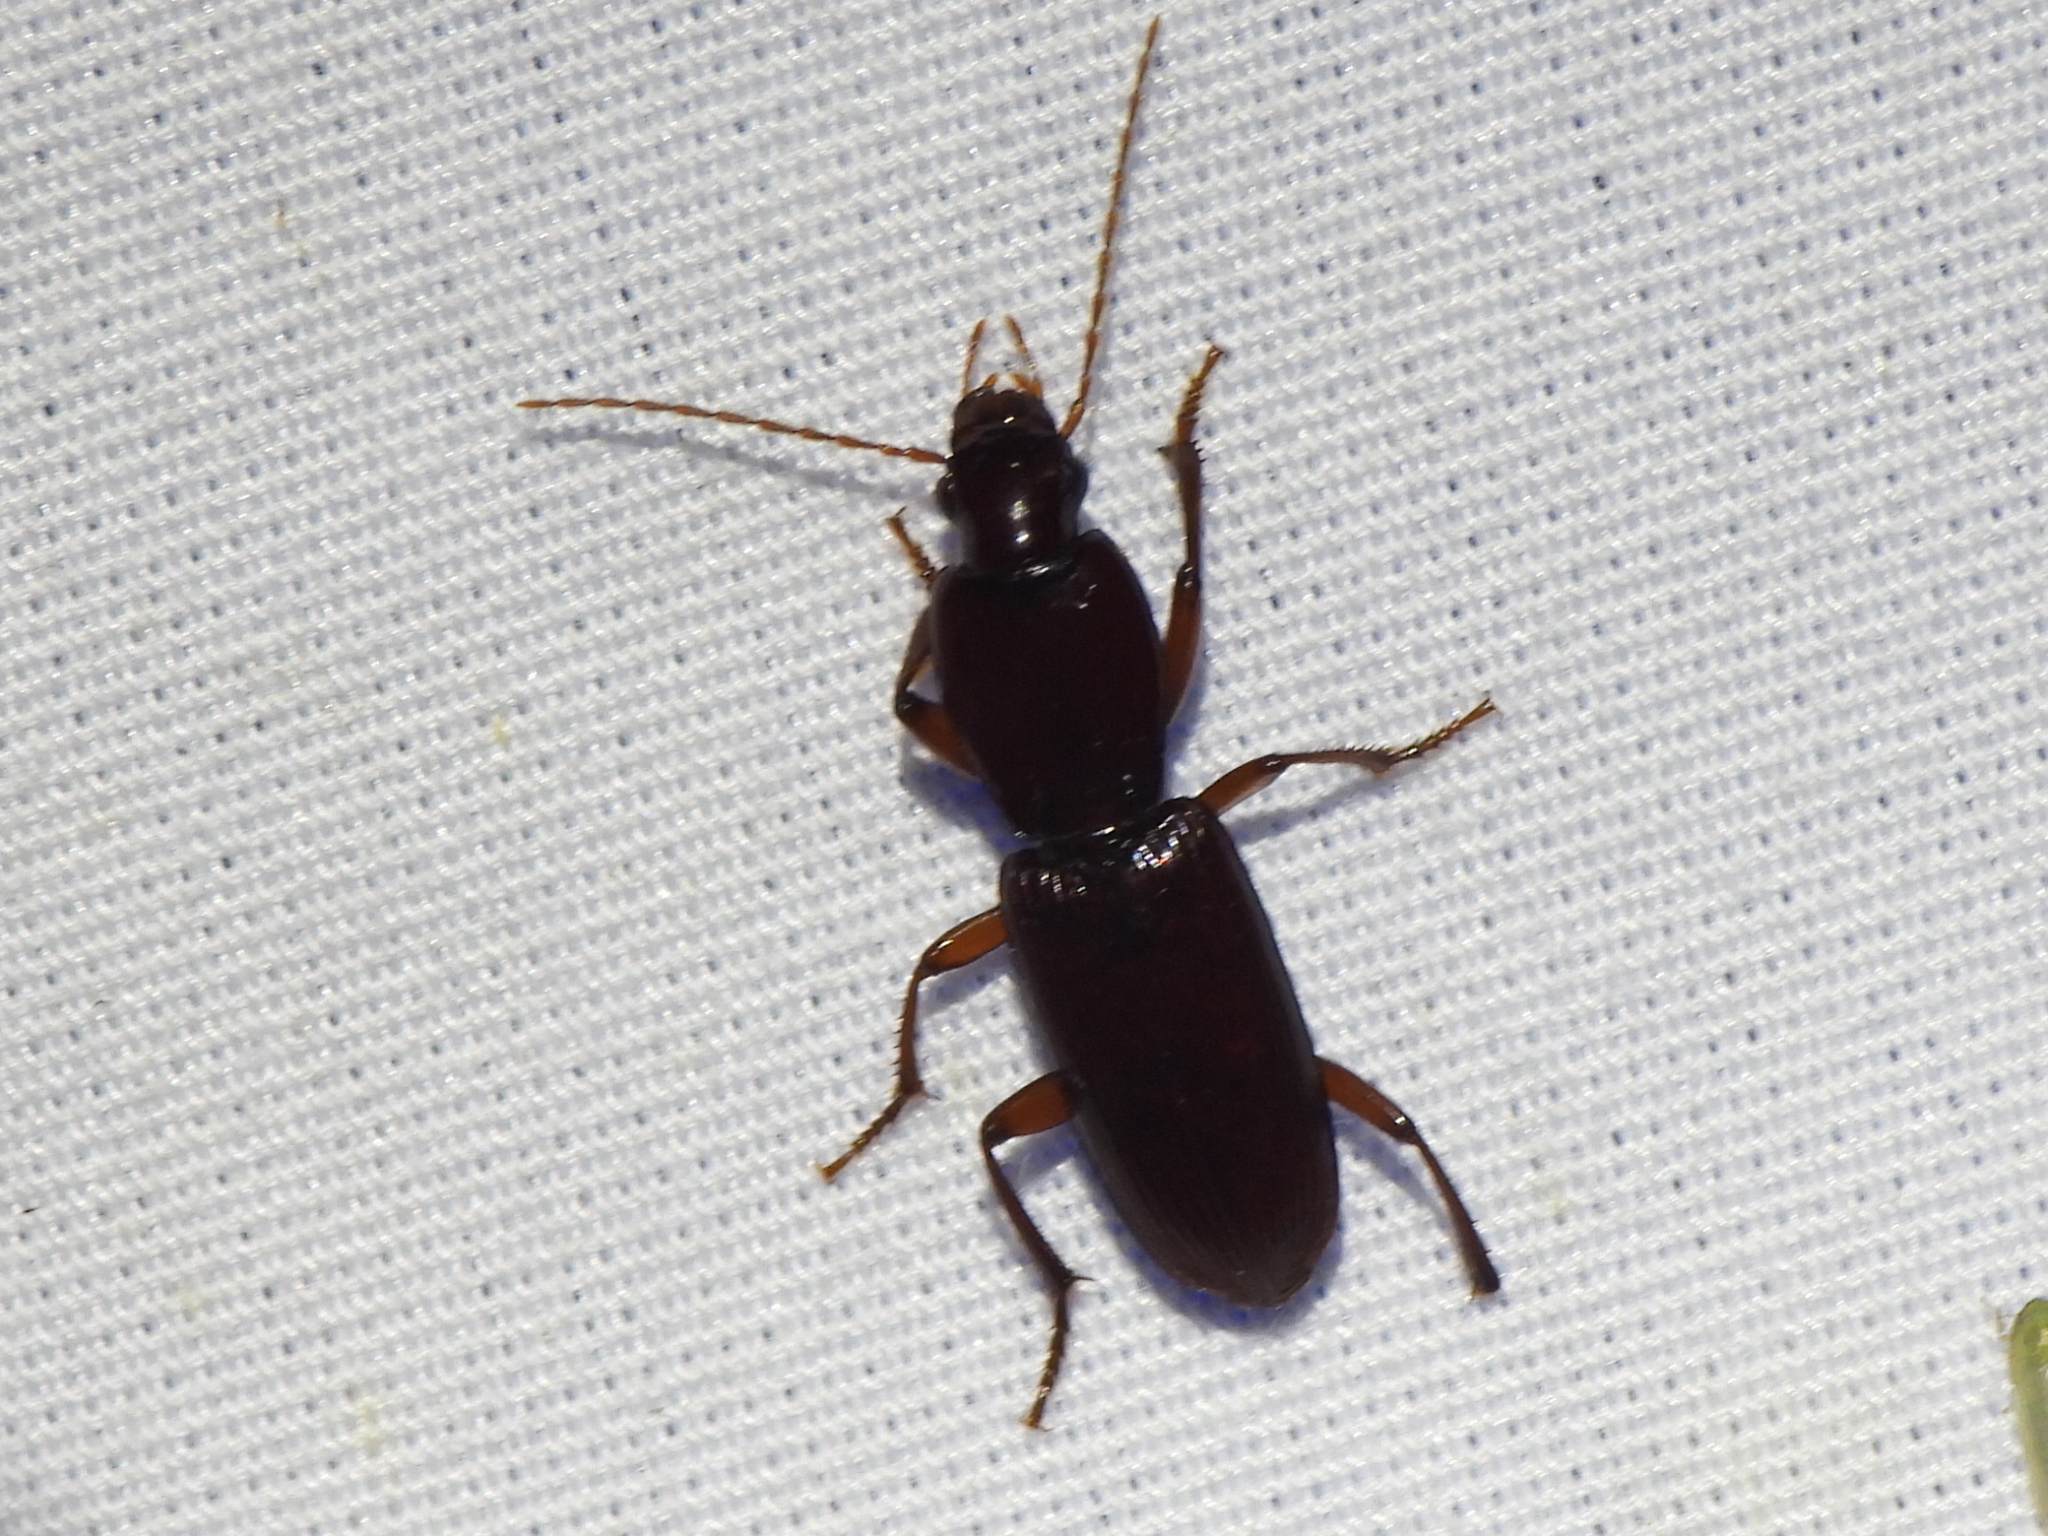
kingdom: Animalia
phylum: Arthropoda
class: Insecta
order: Coleoptera
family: Carabidae
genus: Stenomorphus
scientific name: Stenomorphus californicus
